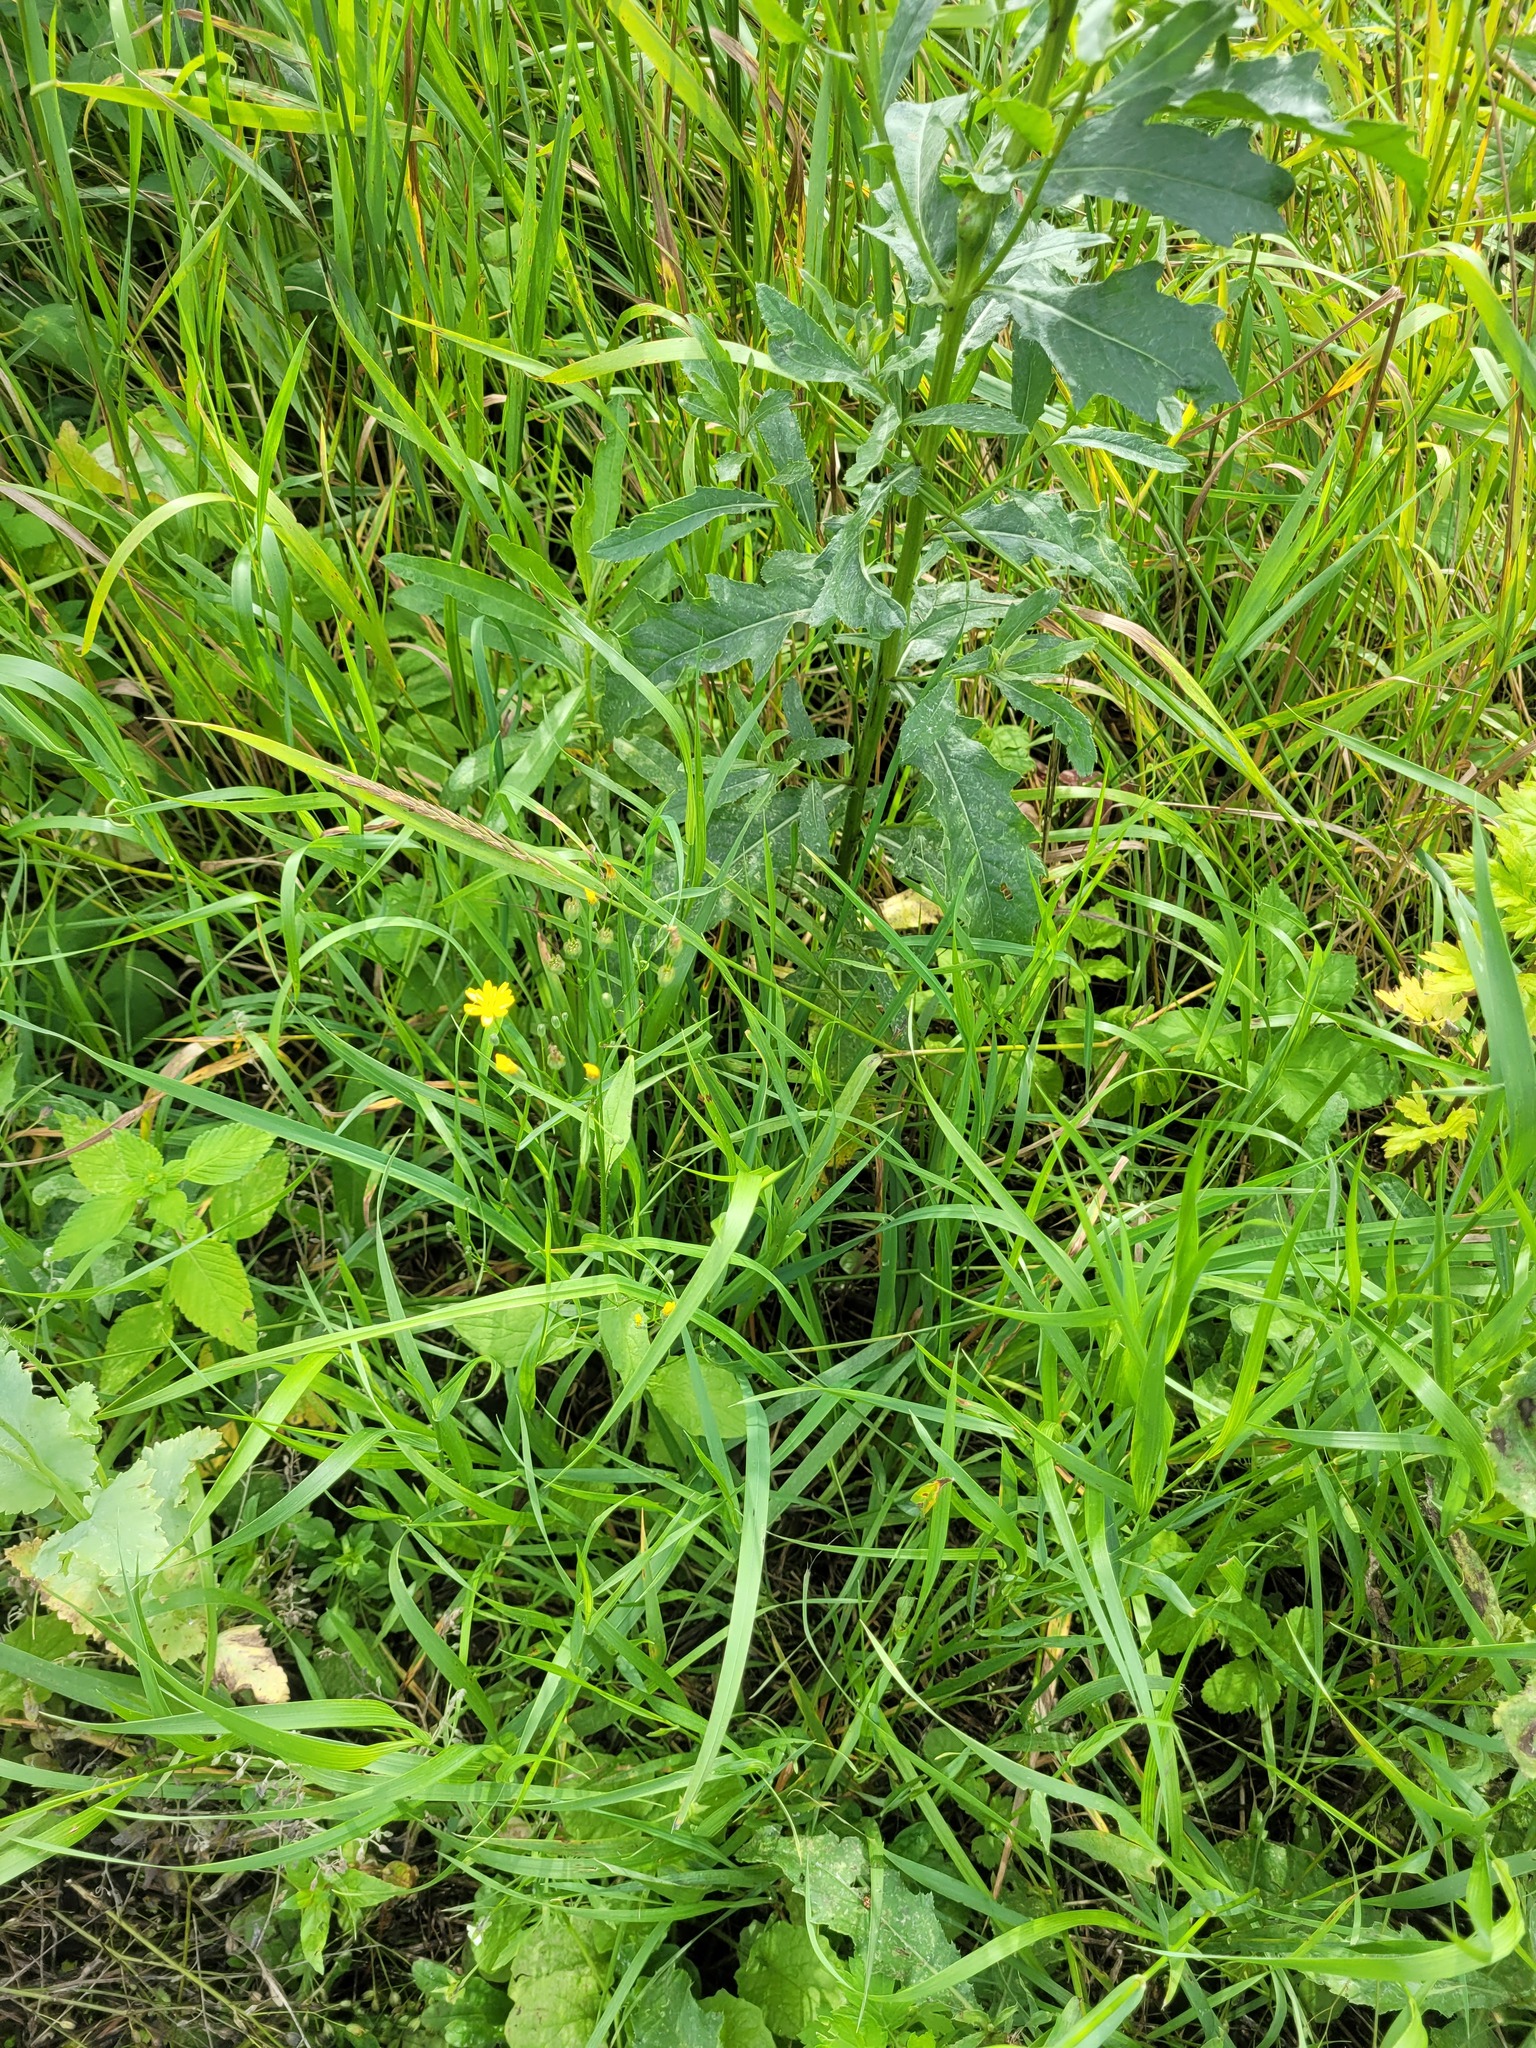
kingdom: Plantae
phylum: Tracheophyta
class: Magnoliopsida
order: Asterales
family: Asteraceae
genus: Lapsana
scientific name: Lapsana communis
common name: Nipplewort
